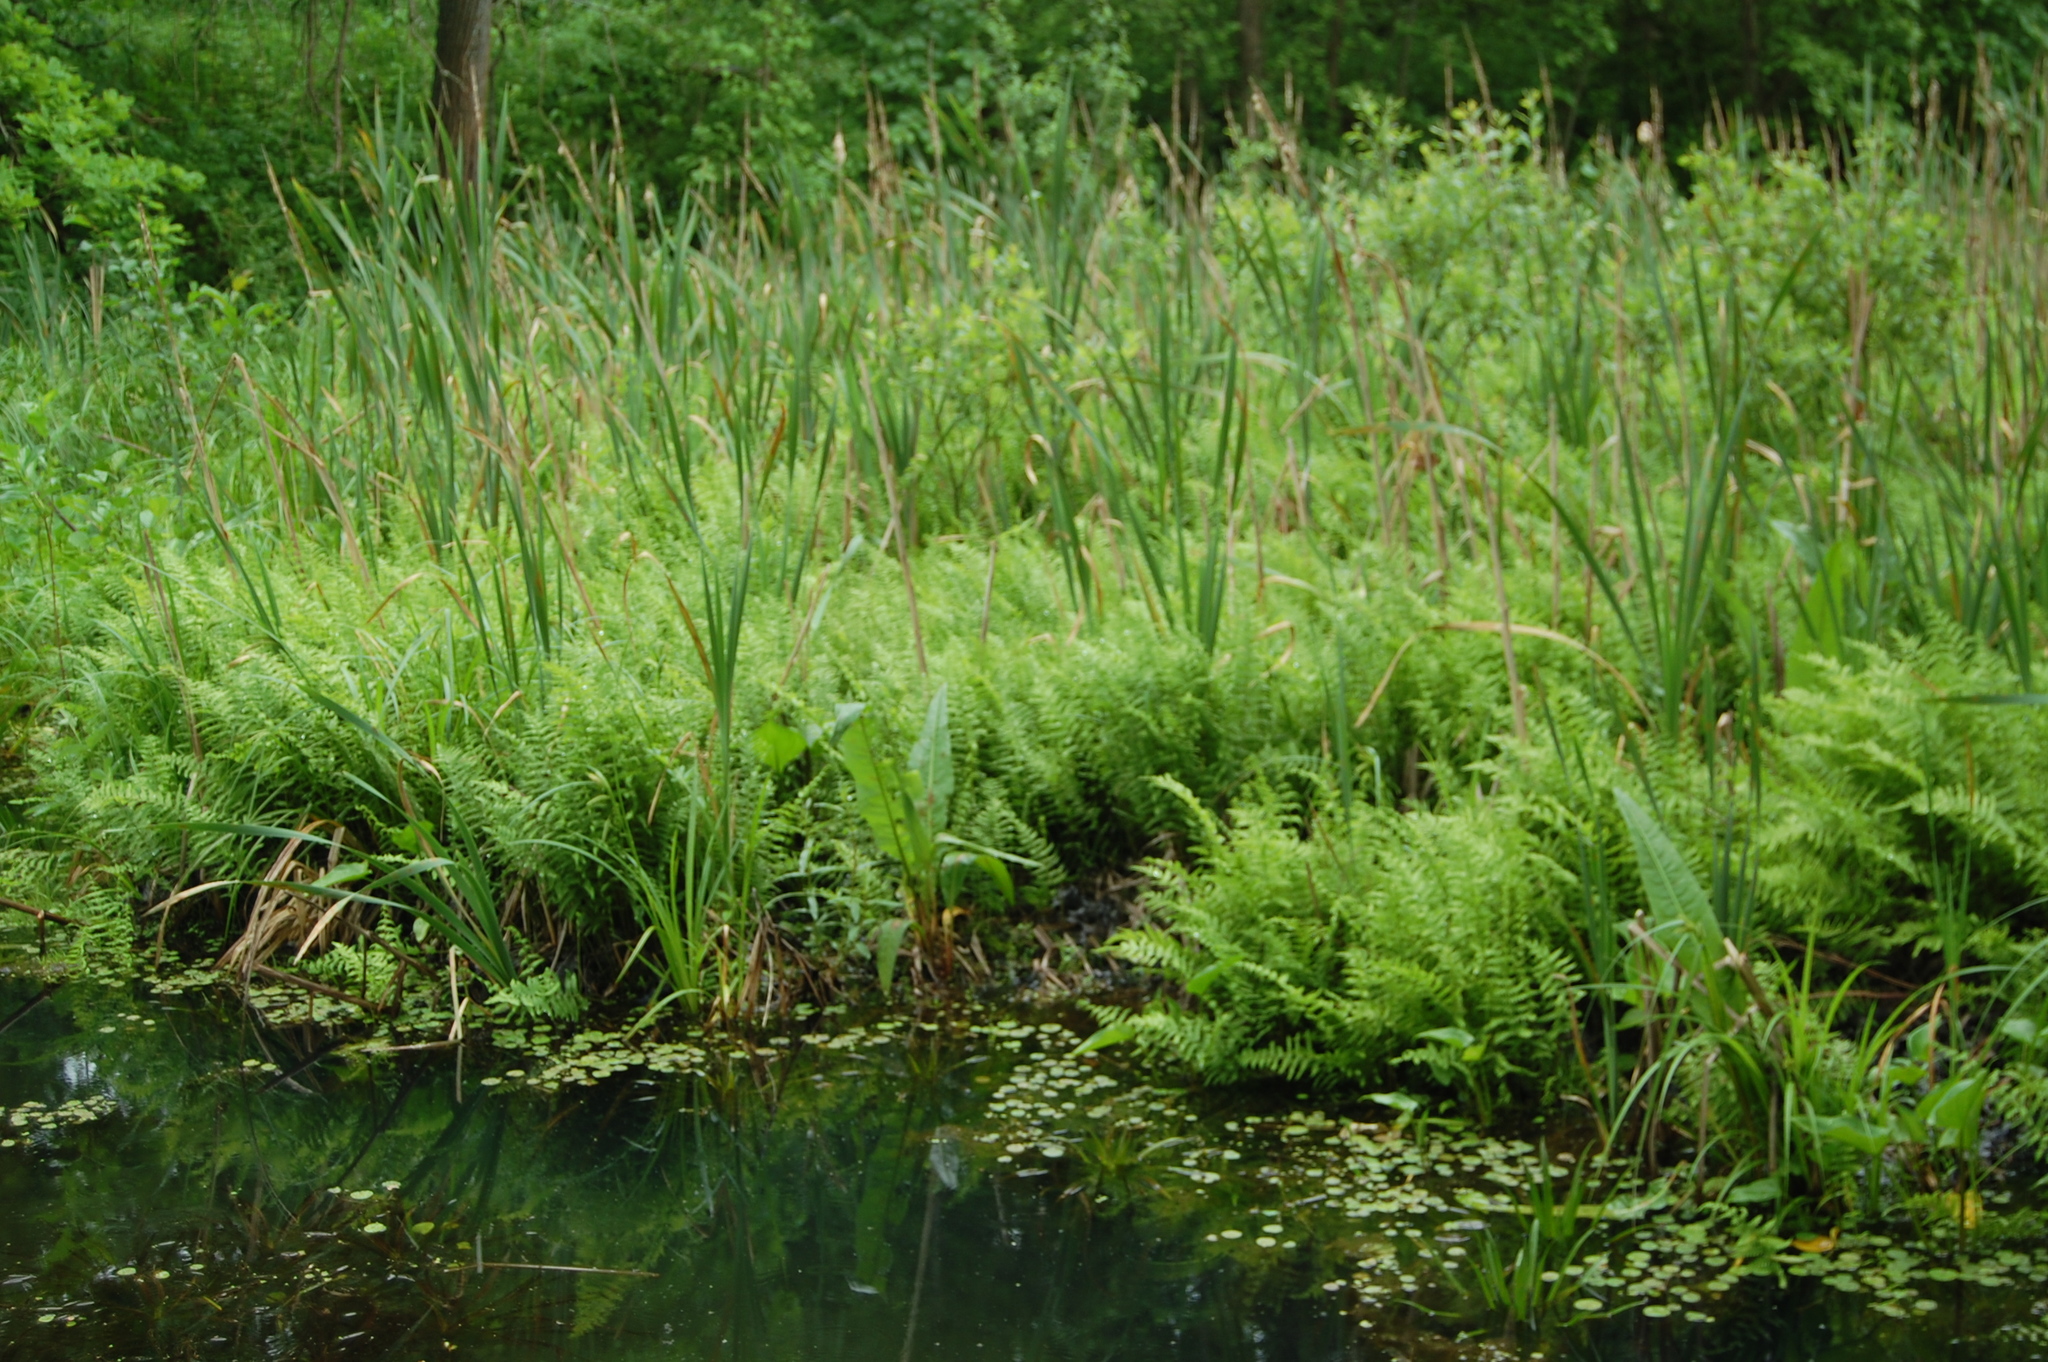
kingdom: Plantae
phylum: Tracheophyta
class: Polypodiopsida
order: Polypodiales
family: Thelypteridaceae
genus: Thelypteris
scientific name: Thelypteris palustris
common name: Marsh fern
